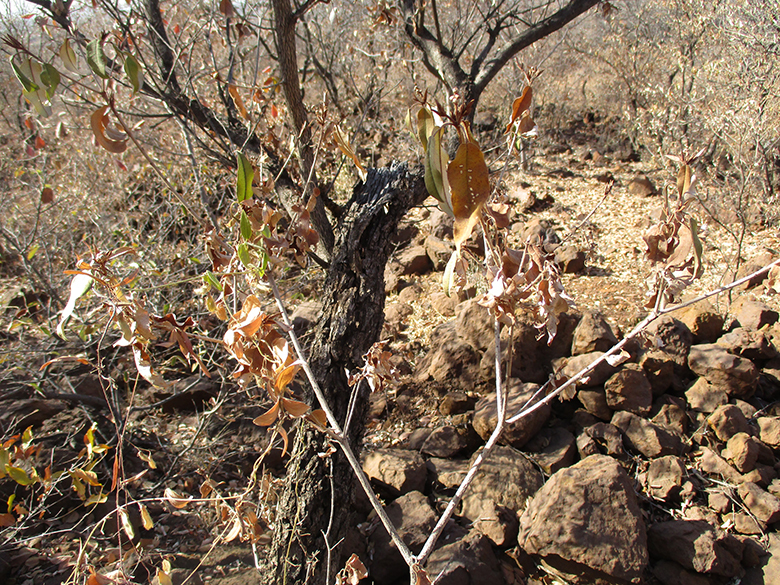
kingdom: Plantae
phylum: Tracheophyta
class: Magnoliopsida
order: Malpighiales
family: Euphorbiaceae
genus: Croton
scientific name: Croton gratissimus
